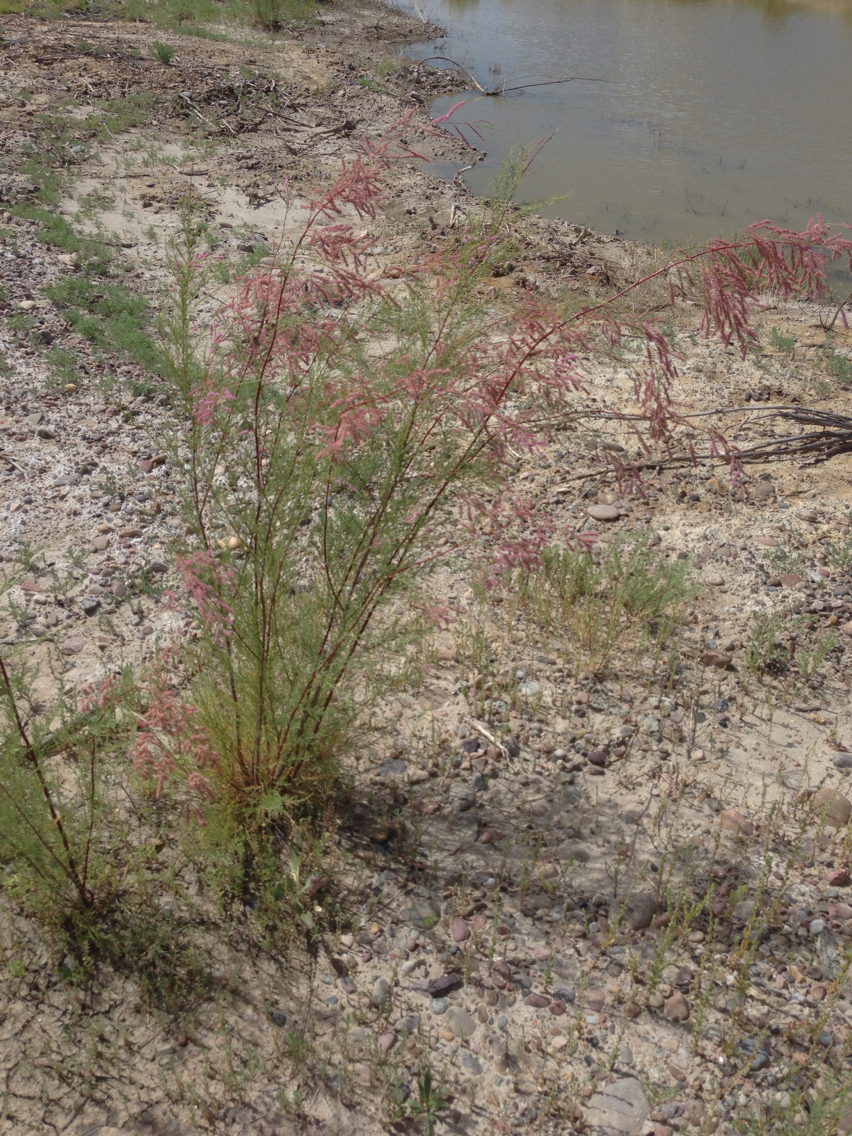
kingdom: Plantae
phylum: Tracheophyta
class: Magnoliopsida
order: Caryophyllales
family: Tamaricaceae
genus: Tamarix
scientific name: Tamarix ramosissima
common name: Pink tamarisk
